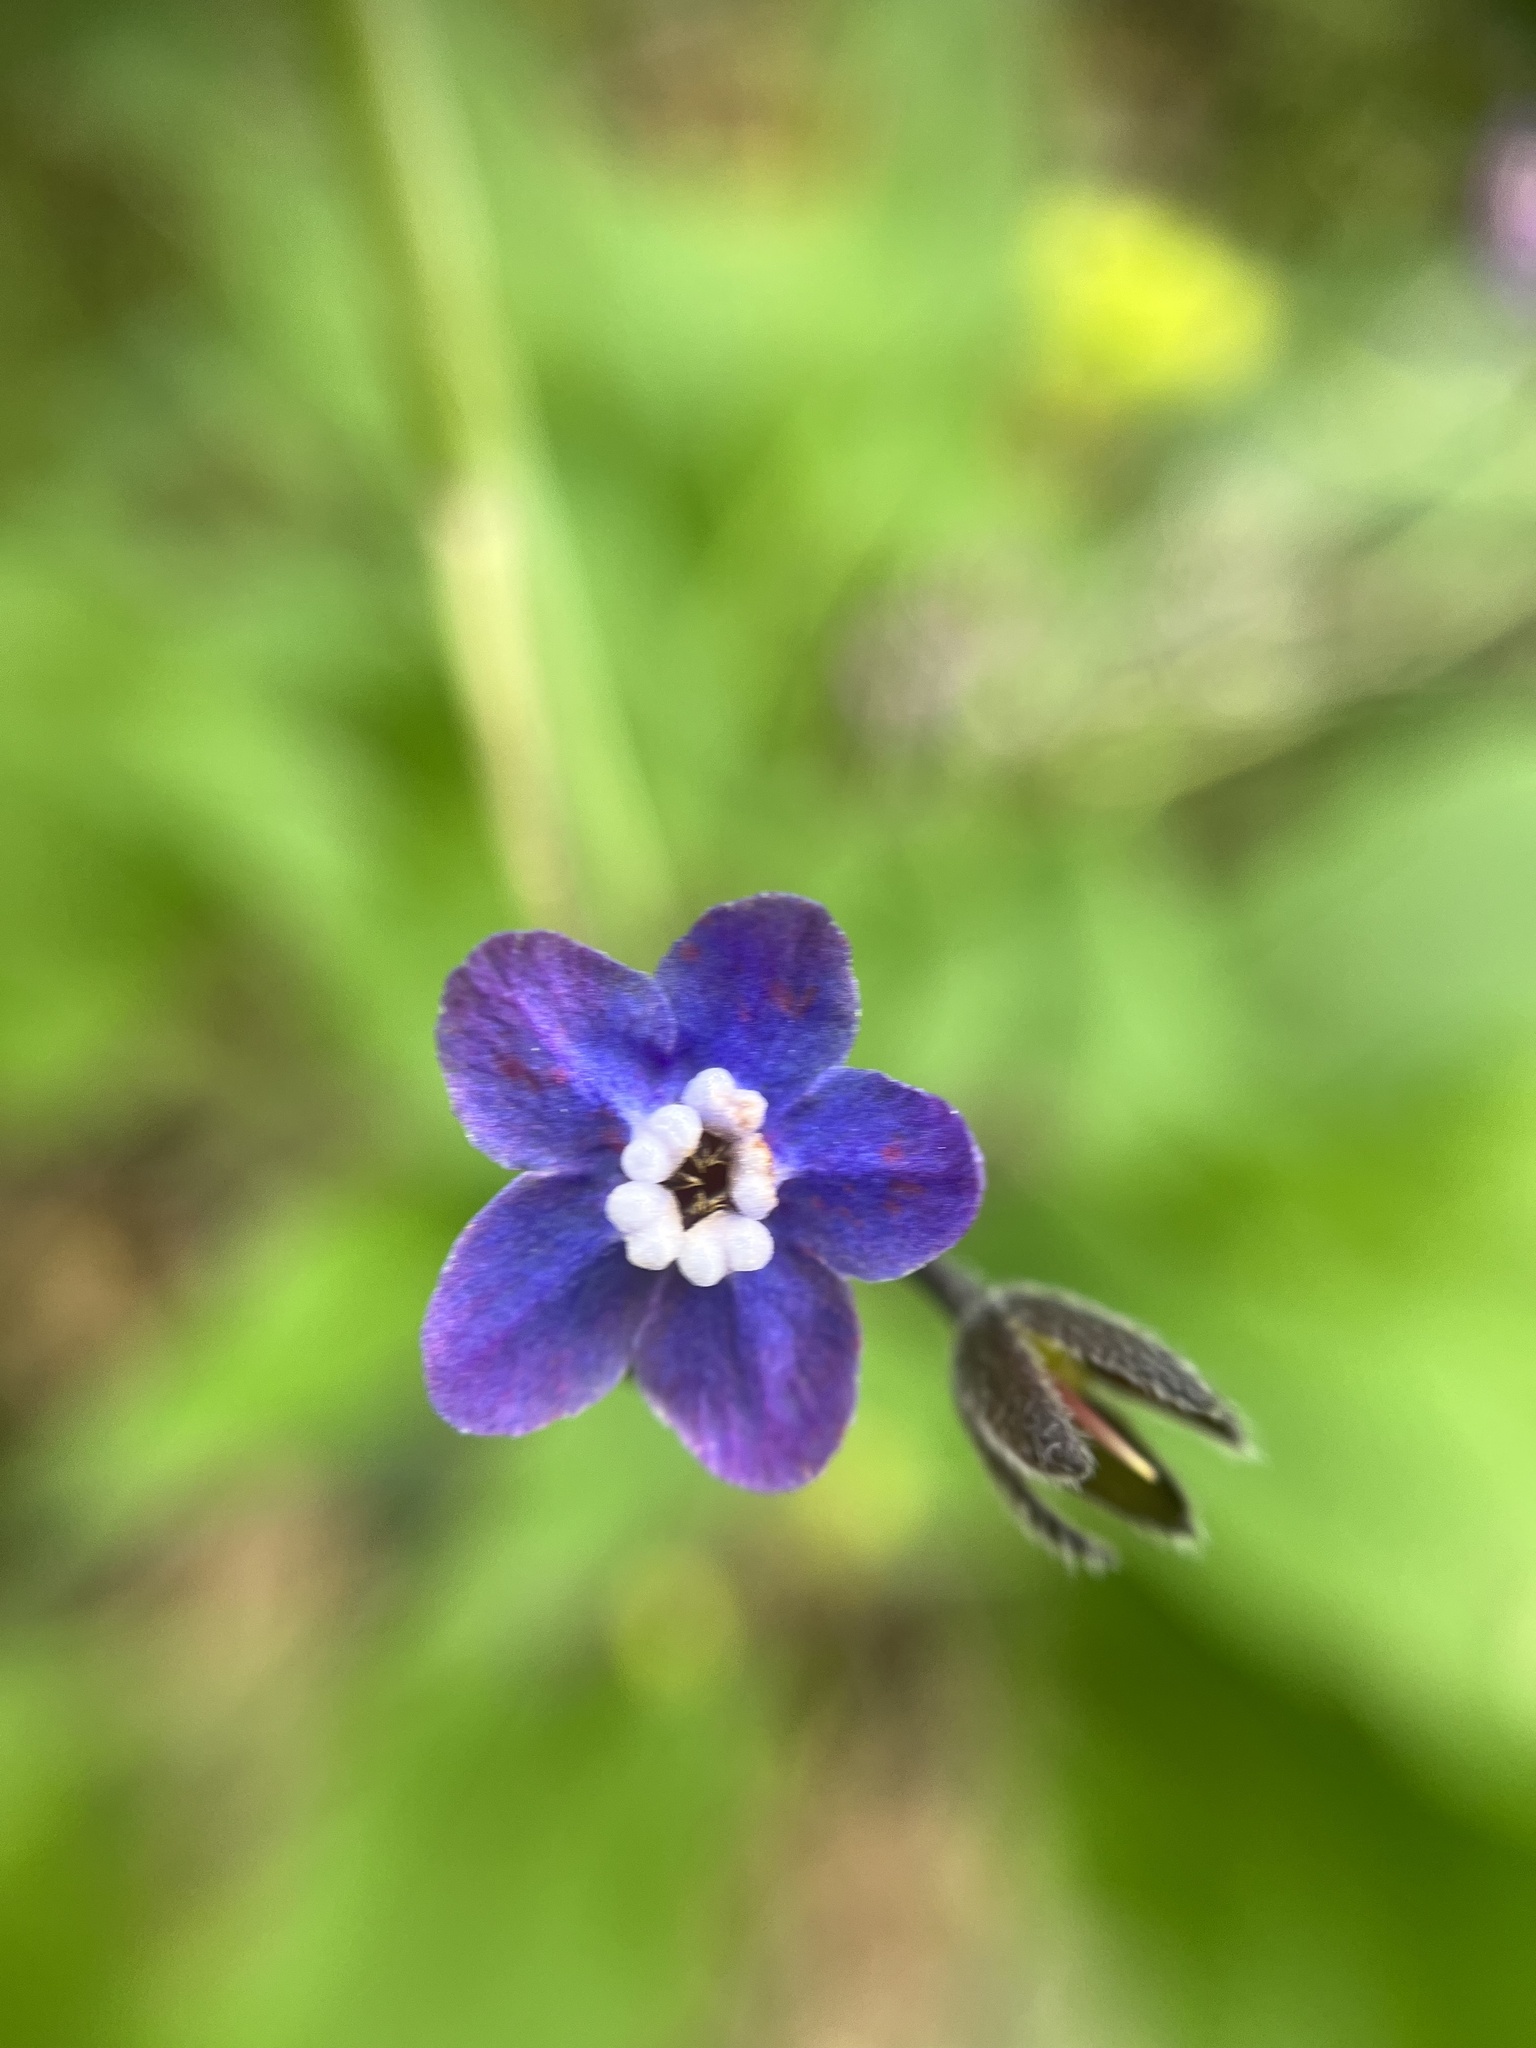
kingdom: Plantae
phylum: Tracheophyta
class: Magnoliopsida
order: Boraginales
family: Boraginaceae
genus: Adelinia
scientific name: Adelinia grande
